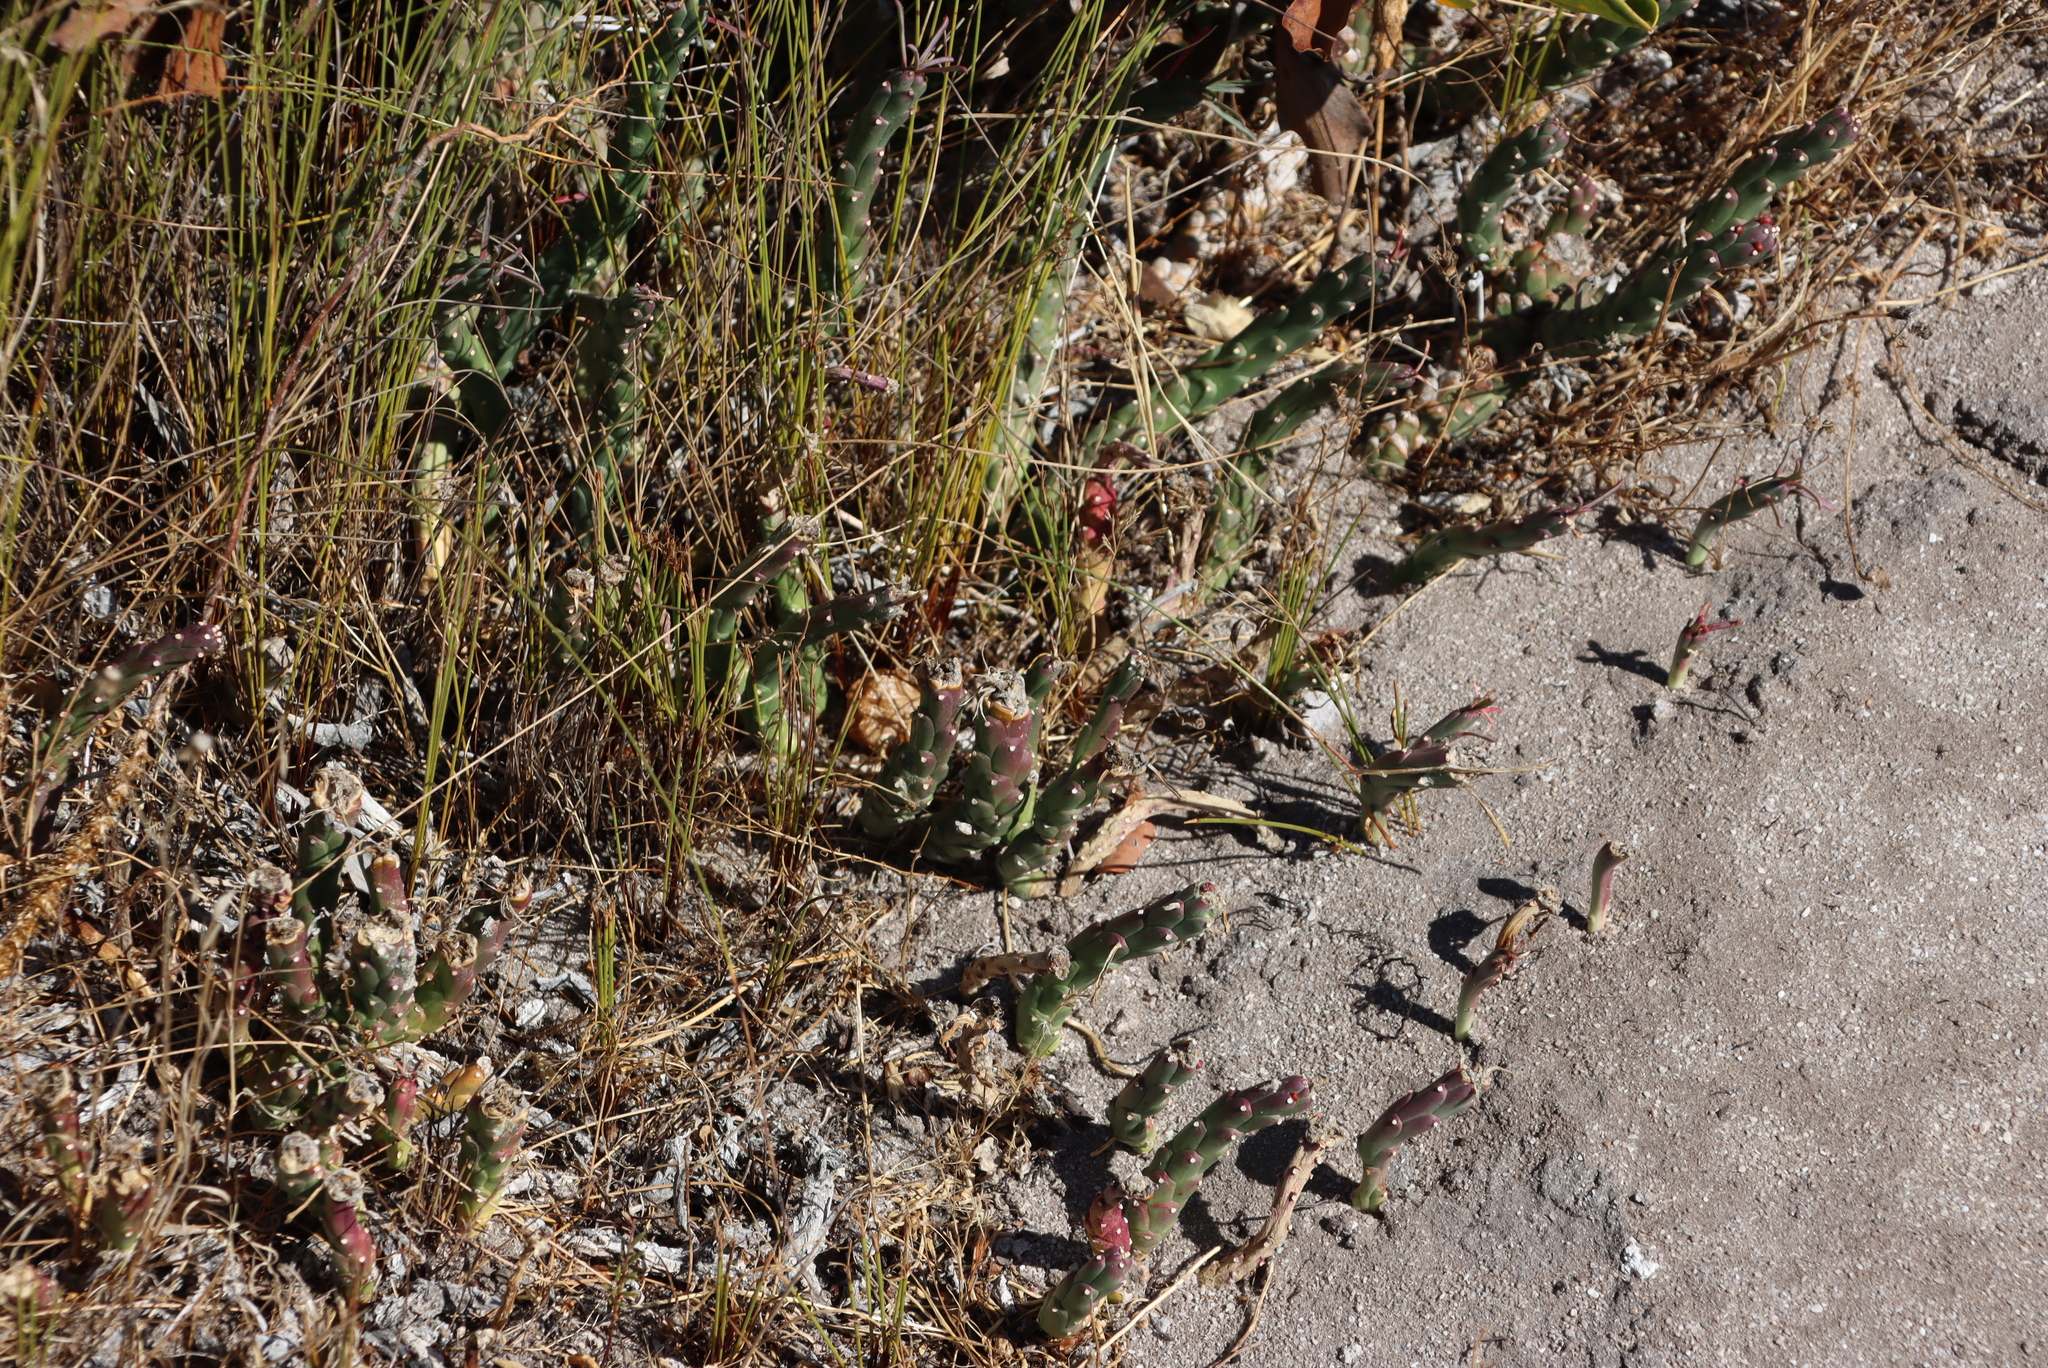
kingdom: Plantae
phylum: Tracheophyta
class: Magnoliopsida
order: Malpighiales
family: Euphorbiaceae
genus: Euphorbia
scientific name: Euphorbia caput-medusae
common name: Medusa's-head
